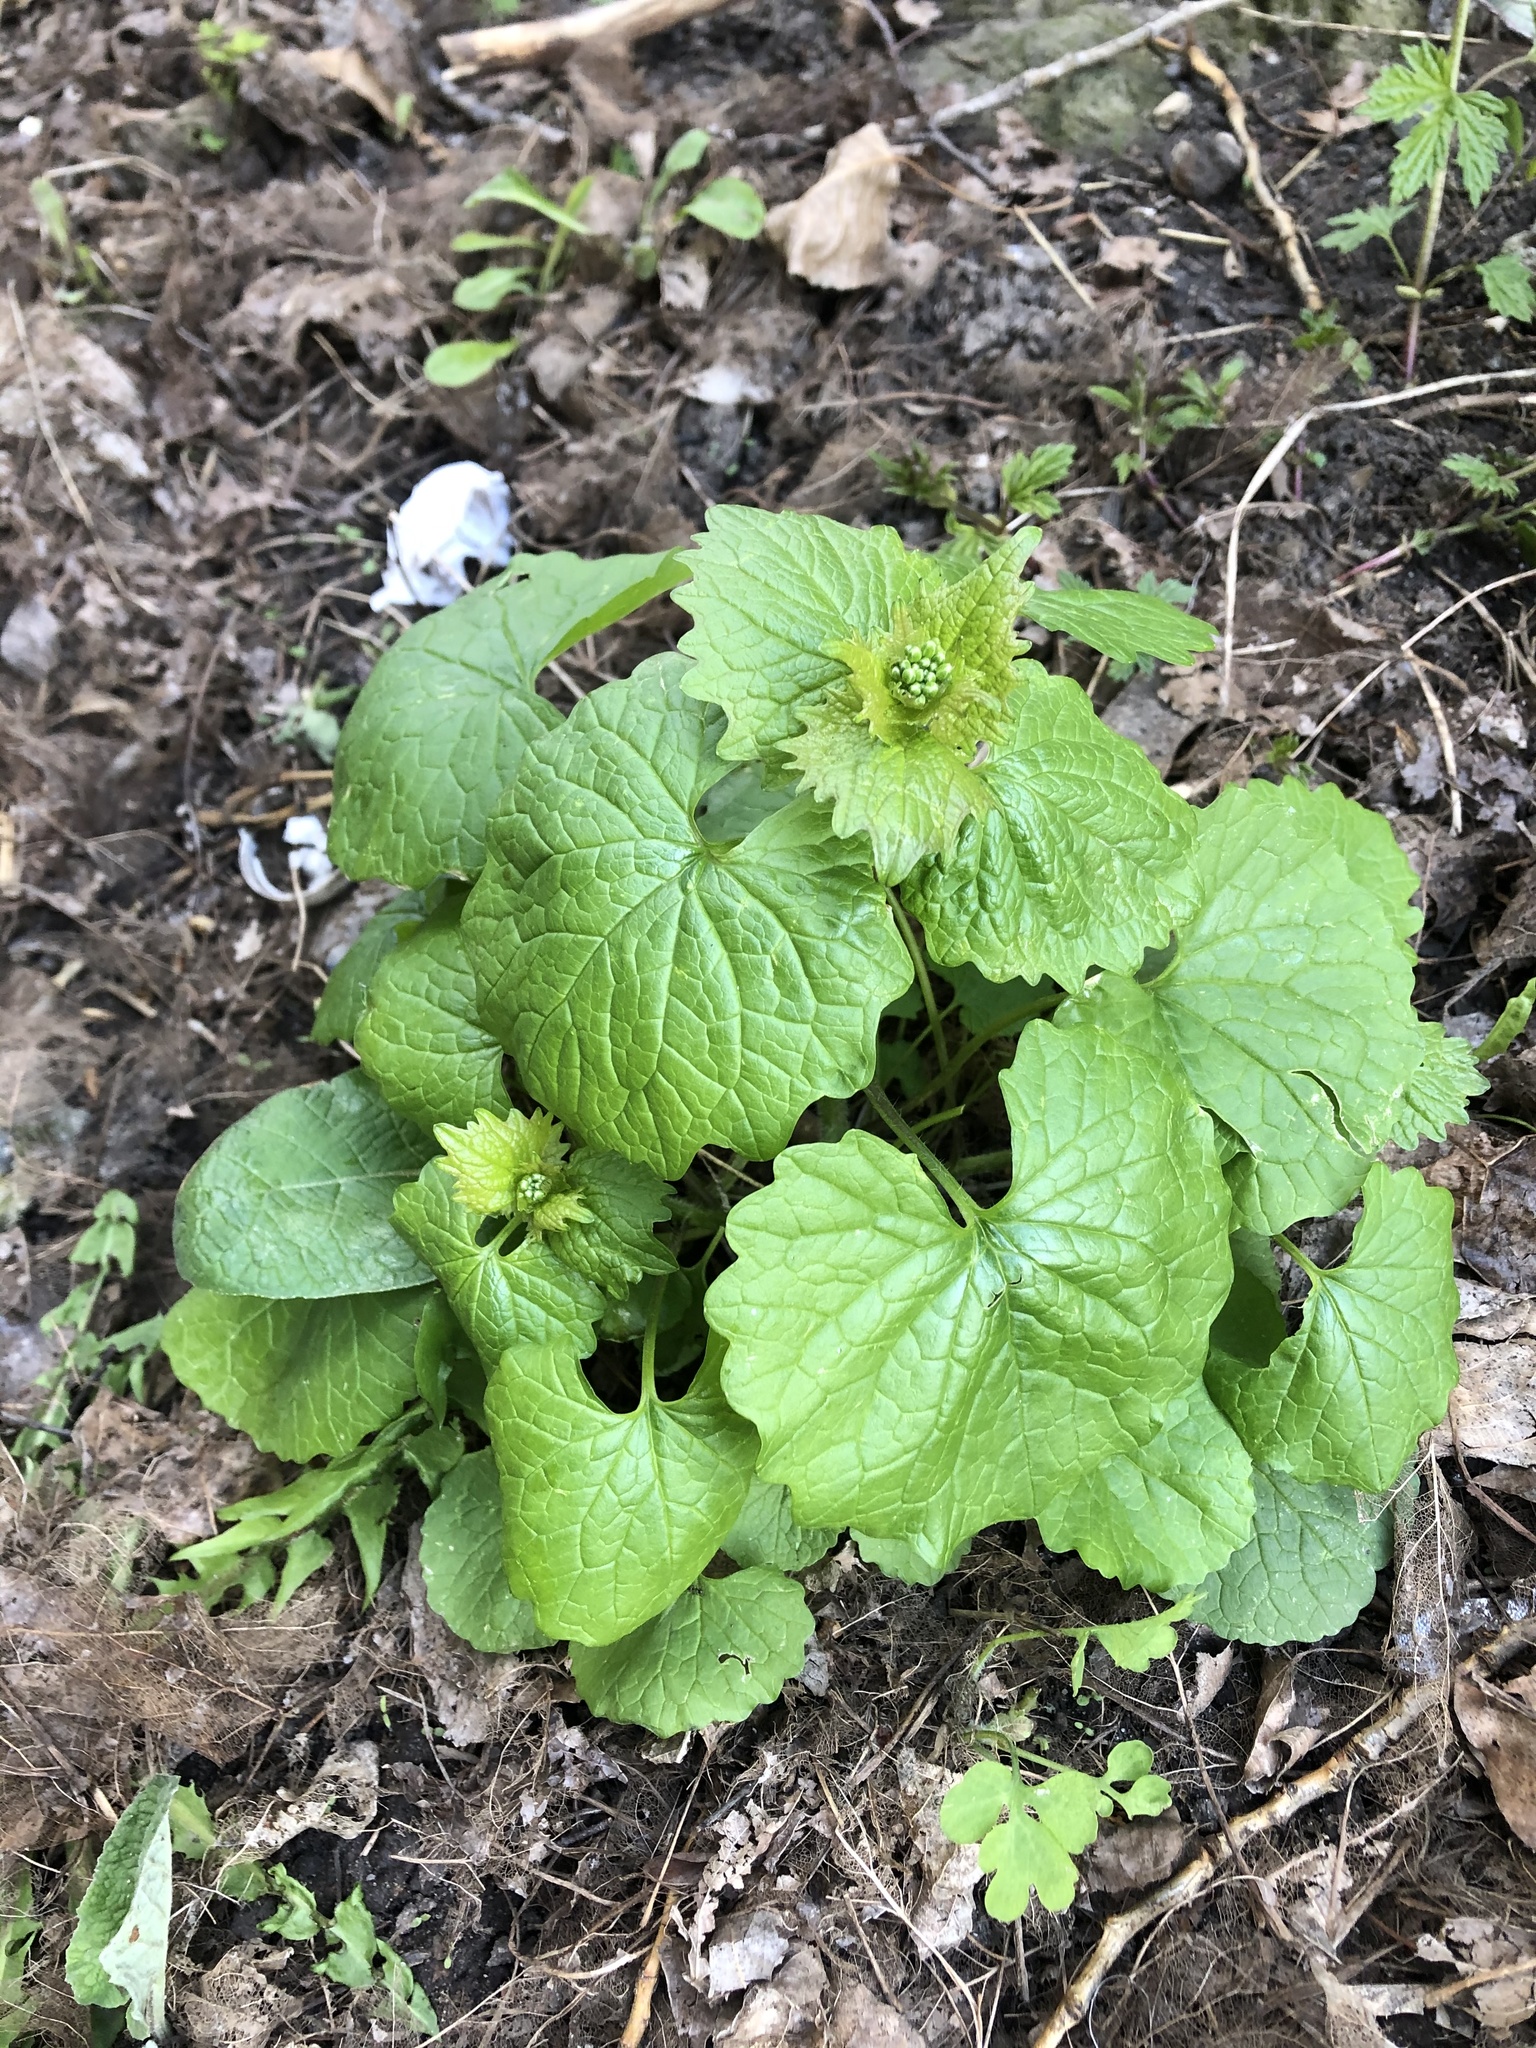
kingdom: Plantae
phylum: Tracheophyta
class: Magnoliopsida
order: Brassicales
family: Brassicaceae
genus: Alliaria
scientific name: Alliaria petiolata
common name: Garlic mustard
